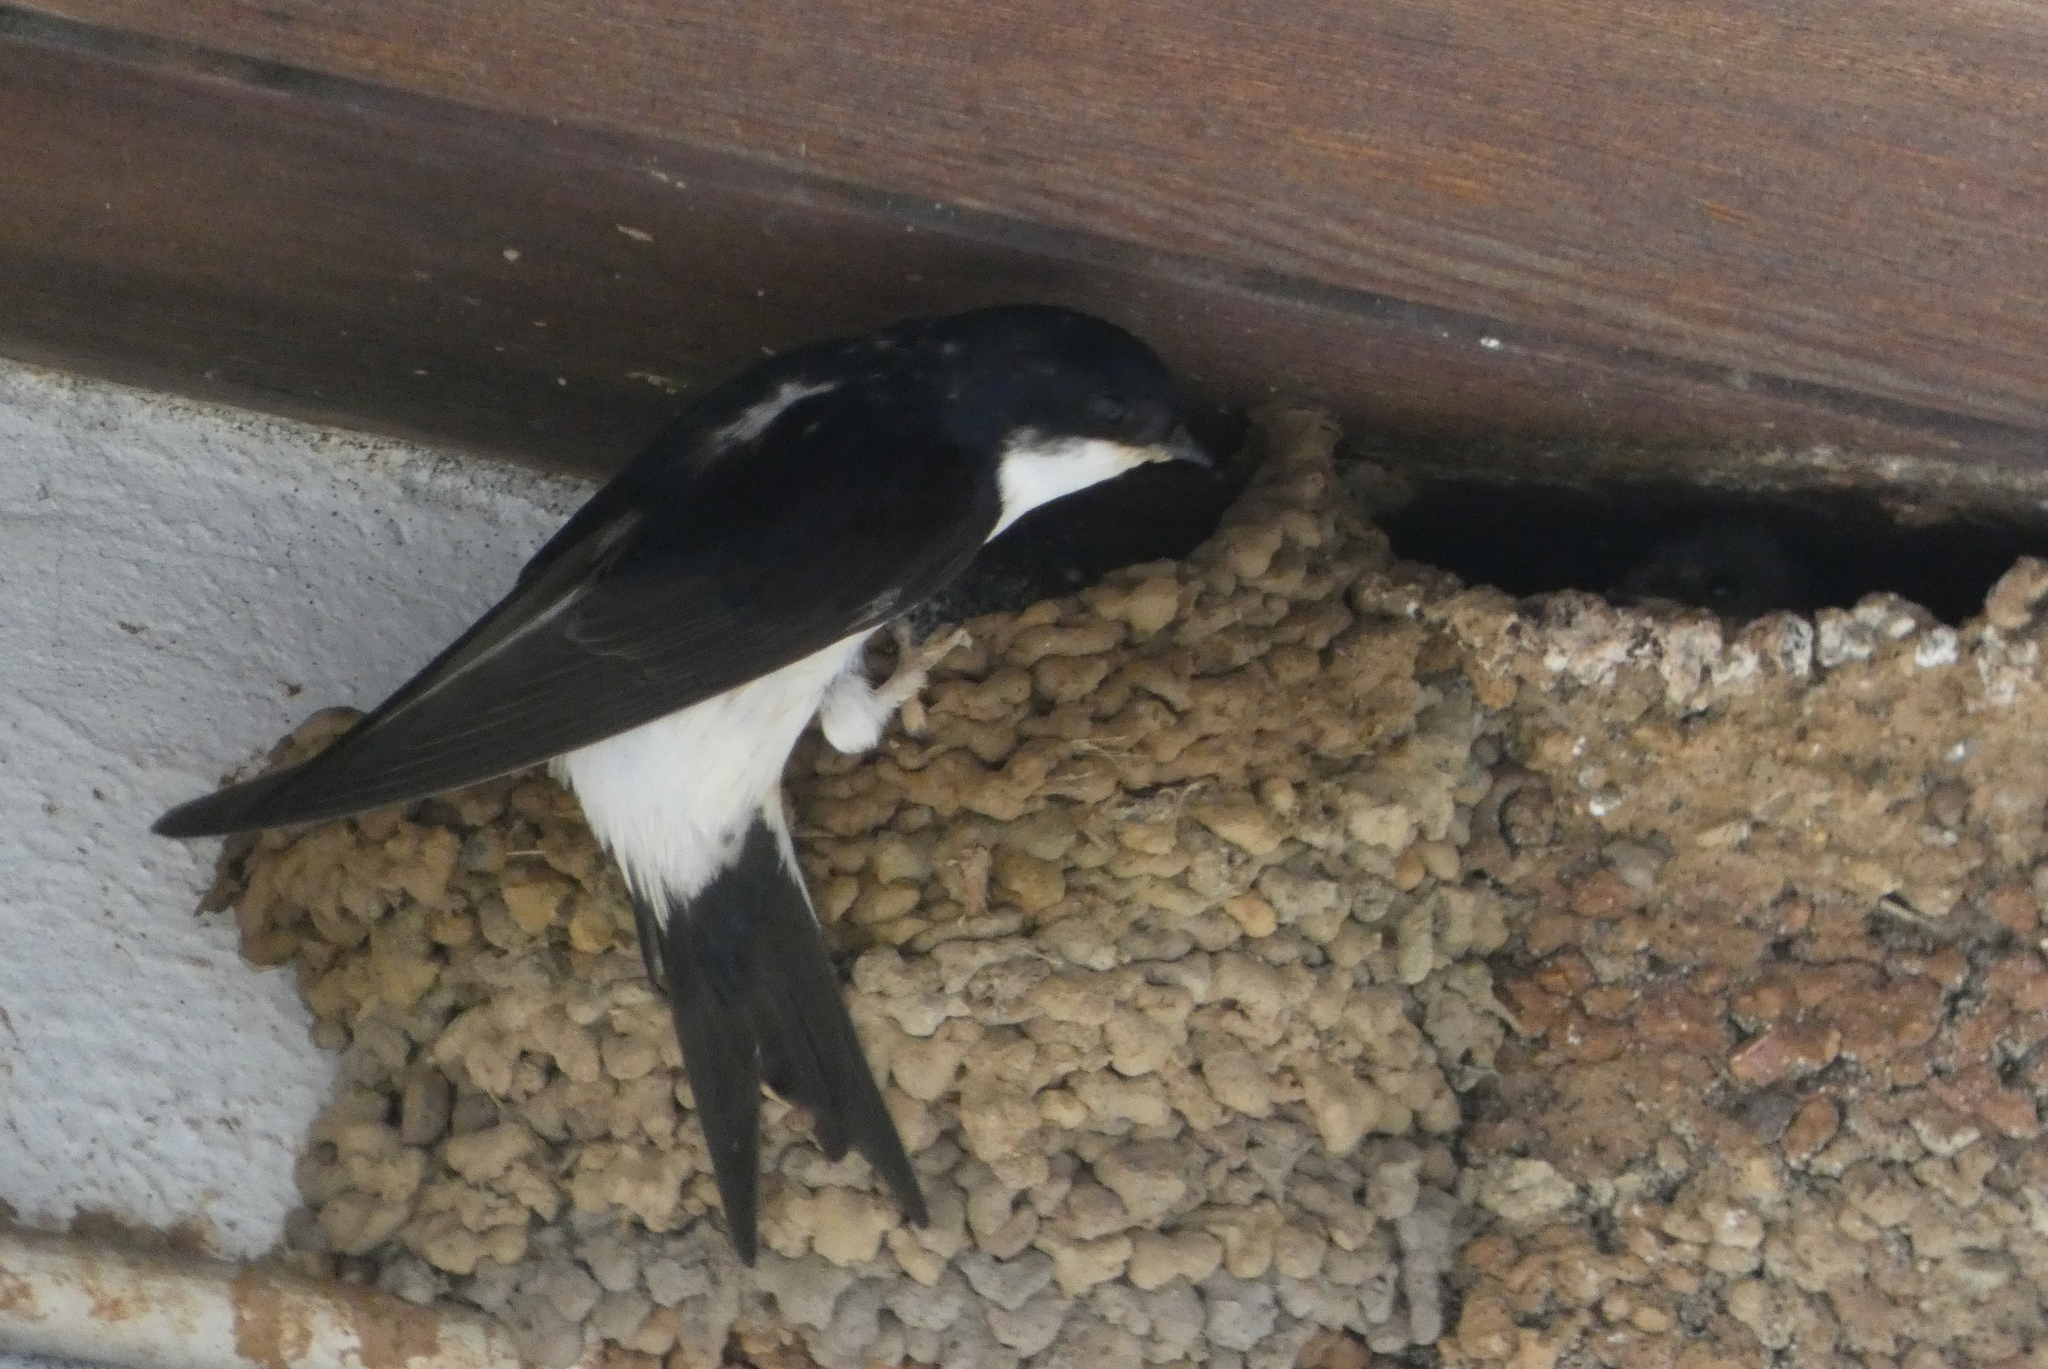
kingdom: Animalia
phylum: Chordata
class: Aves
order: Passeriformes
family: Hirundinidae
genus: Delichon
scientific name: Delichon urbicum
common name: Common house martin
